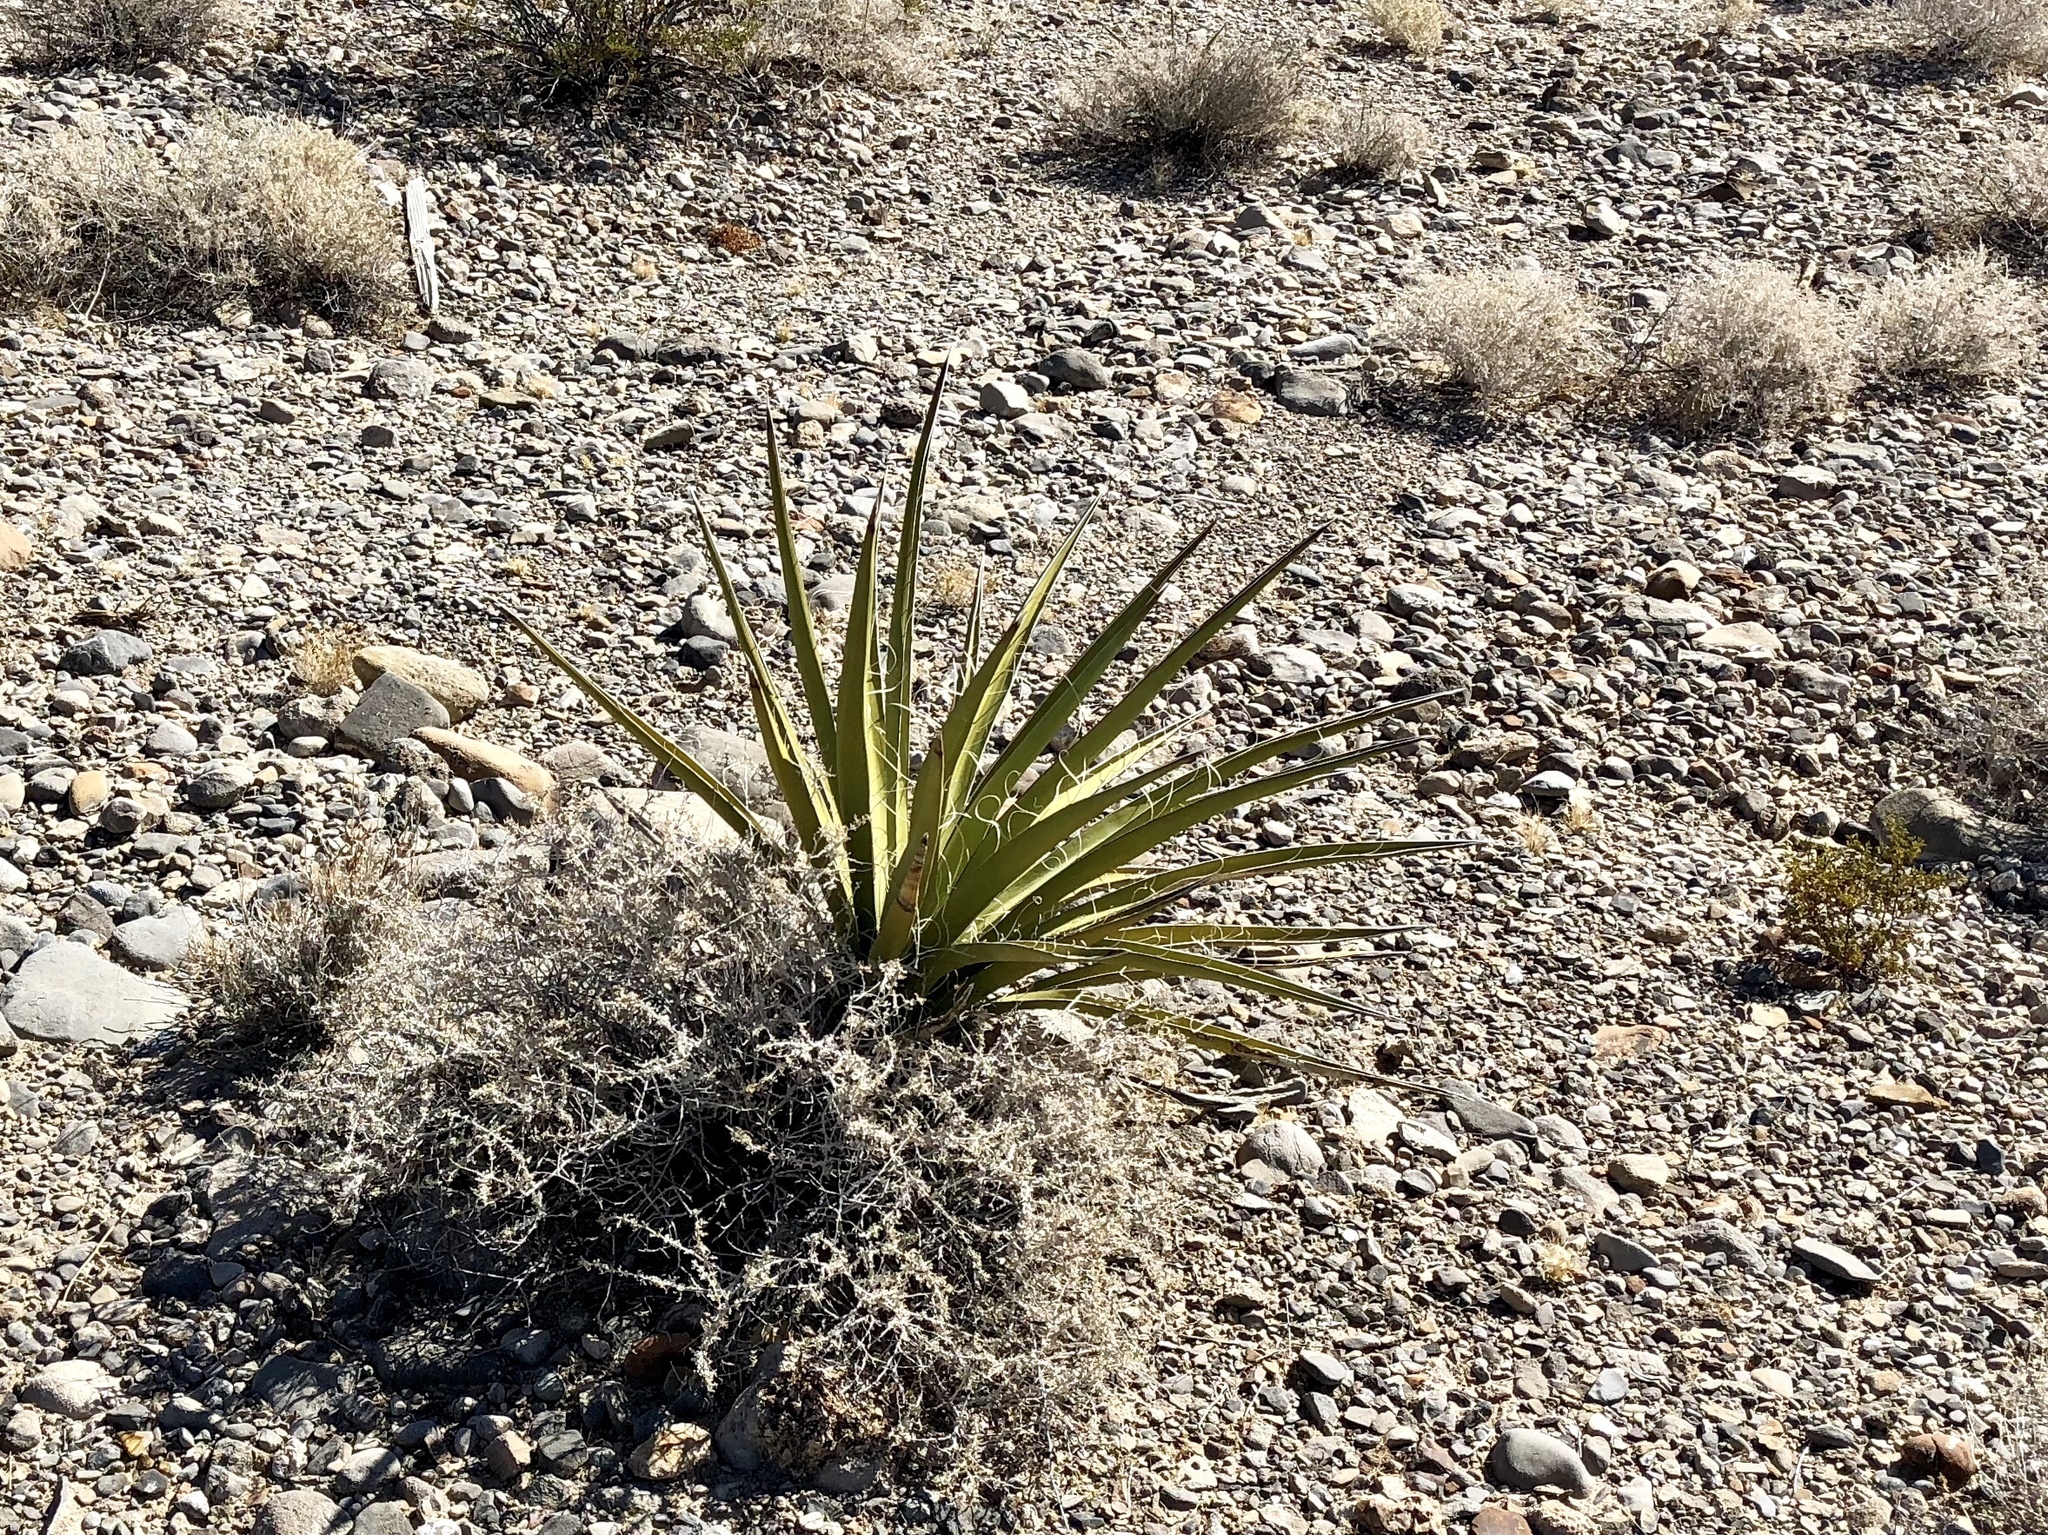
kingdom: Plantae
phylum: Tracheophyta
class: Liliopsida
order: Asparagales
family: Asparagaceae
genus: Yucca
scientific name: Yucca schidigera
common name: Mojave yucca
